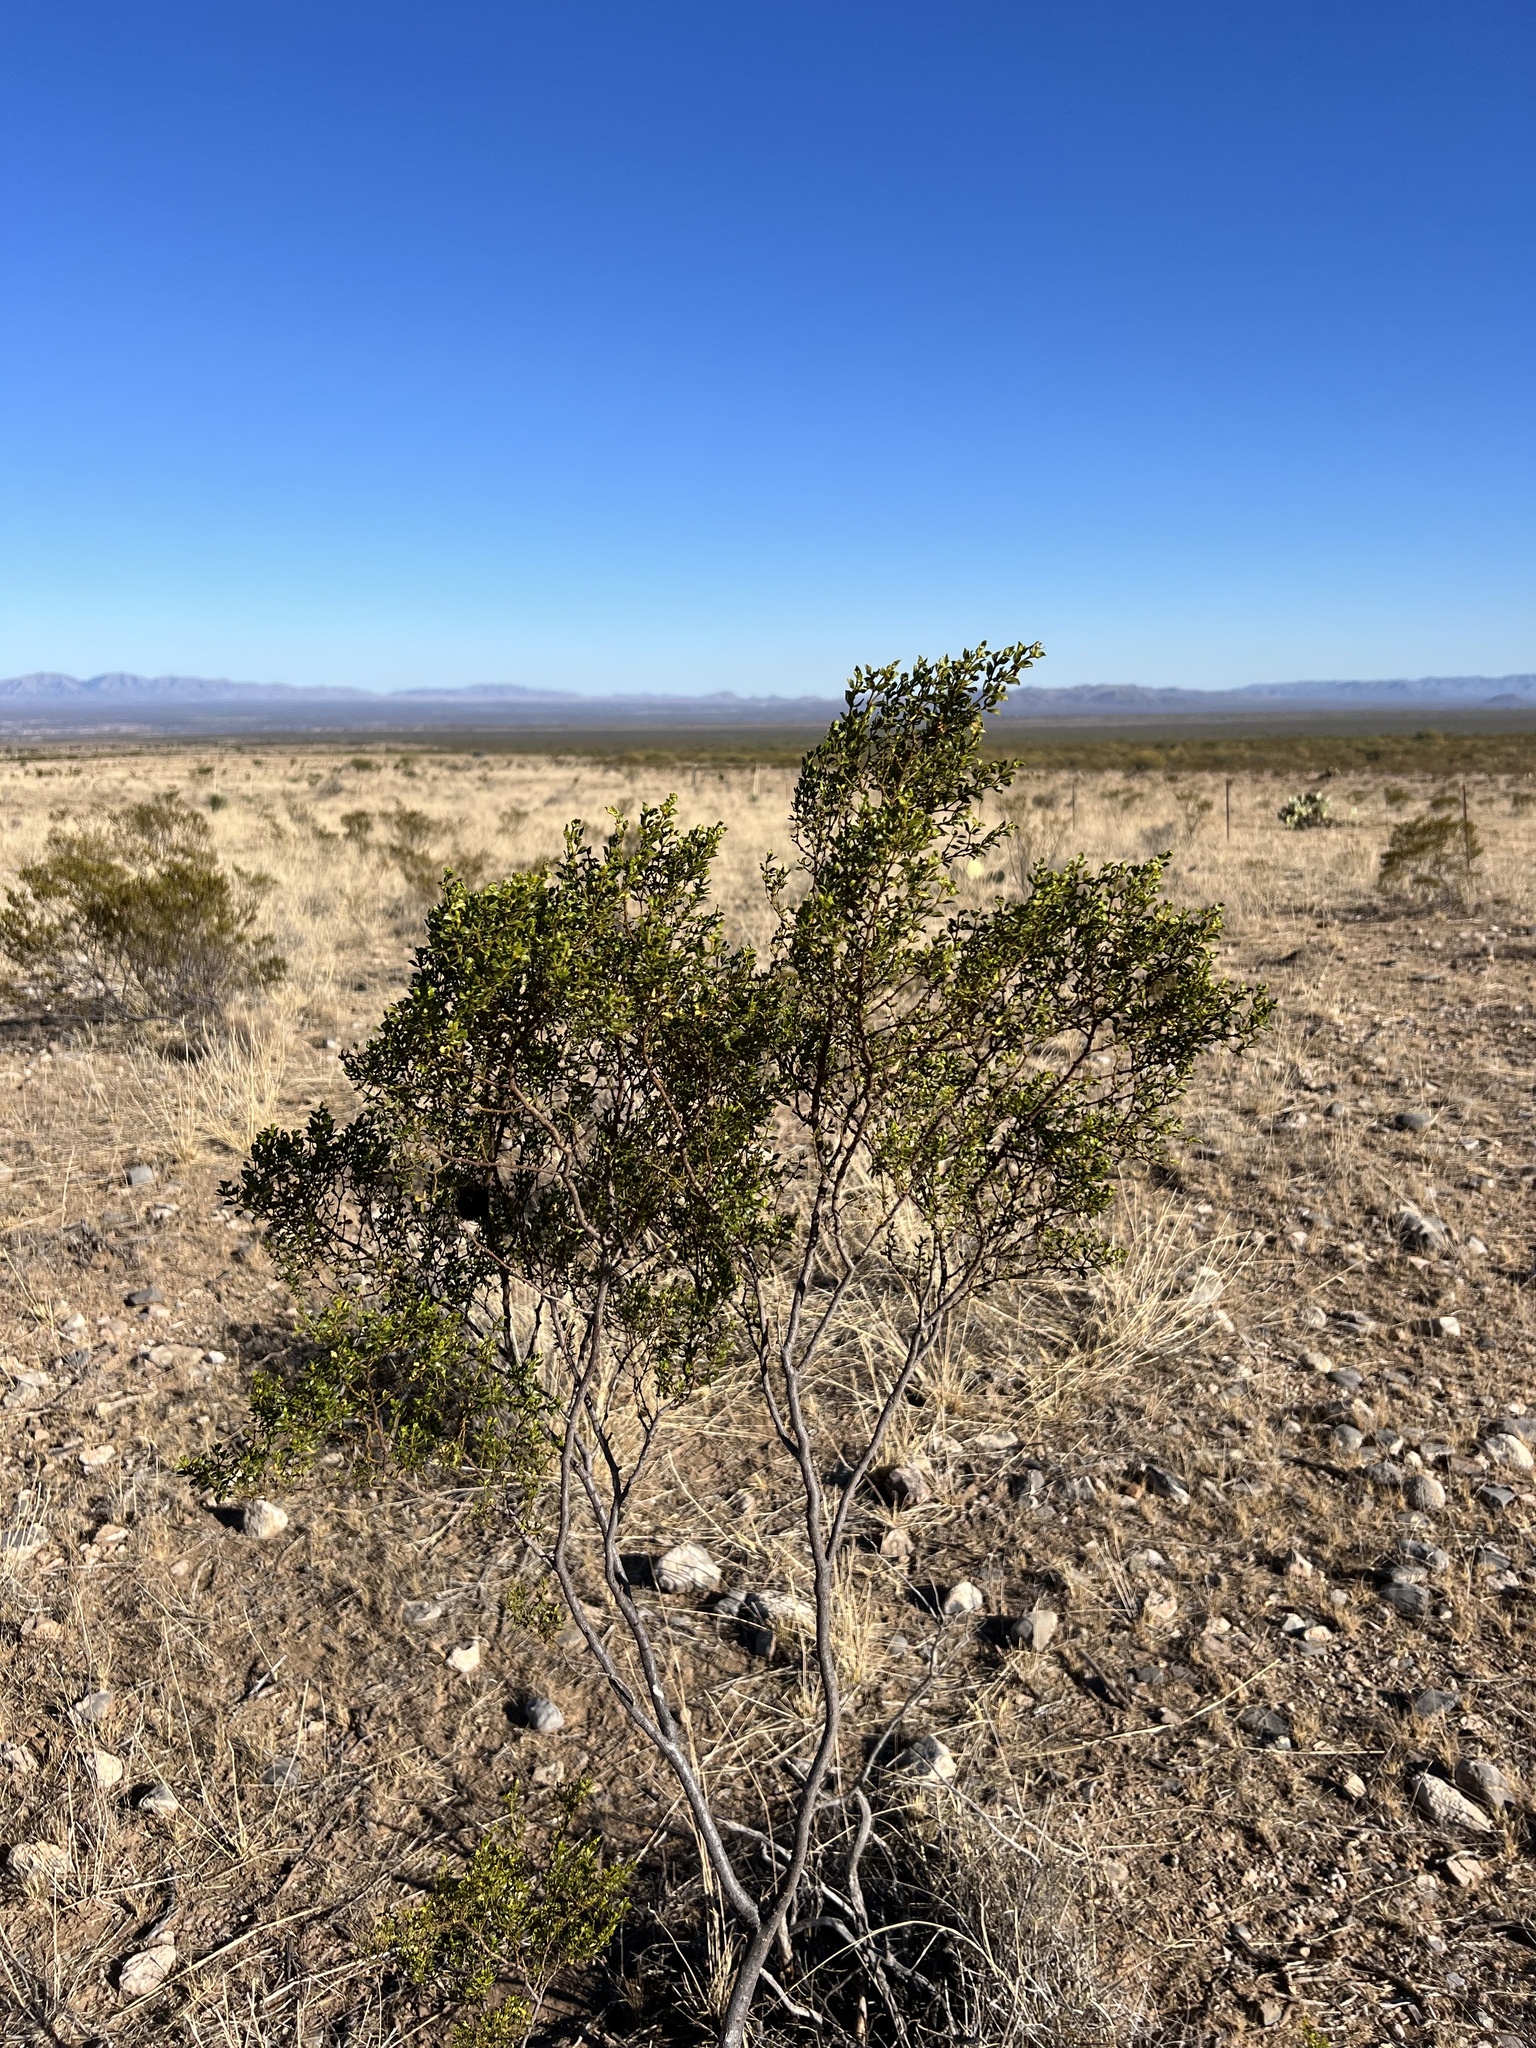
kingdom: Plantae
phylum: Tracheophyta
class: Magnoliopsida
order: Zygophyllales
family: Zygophyllaceae
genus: Larrea
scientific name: Larrea tridentata
